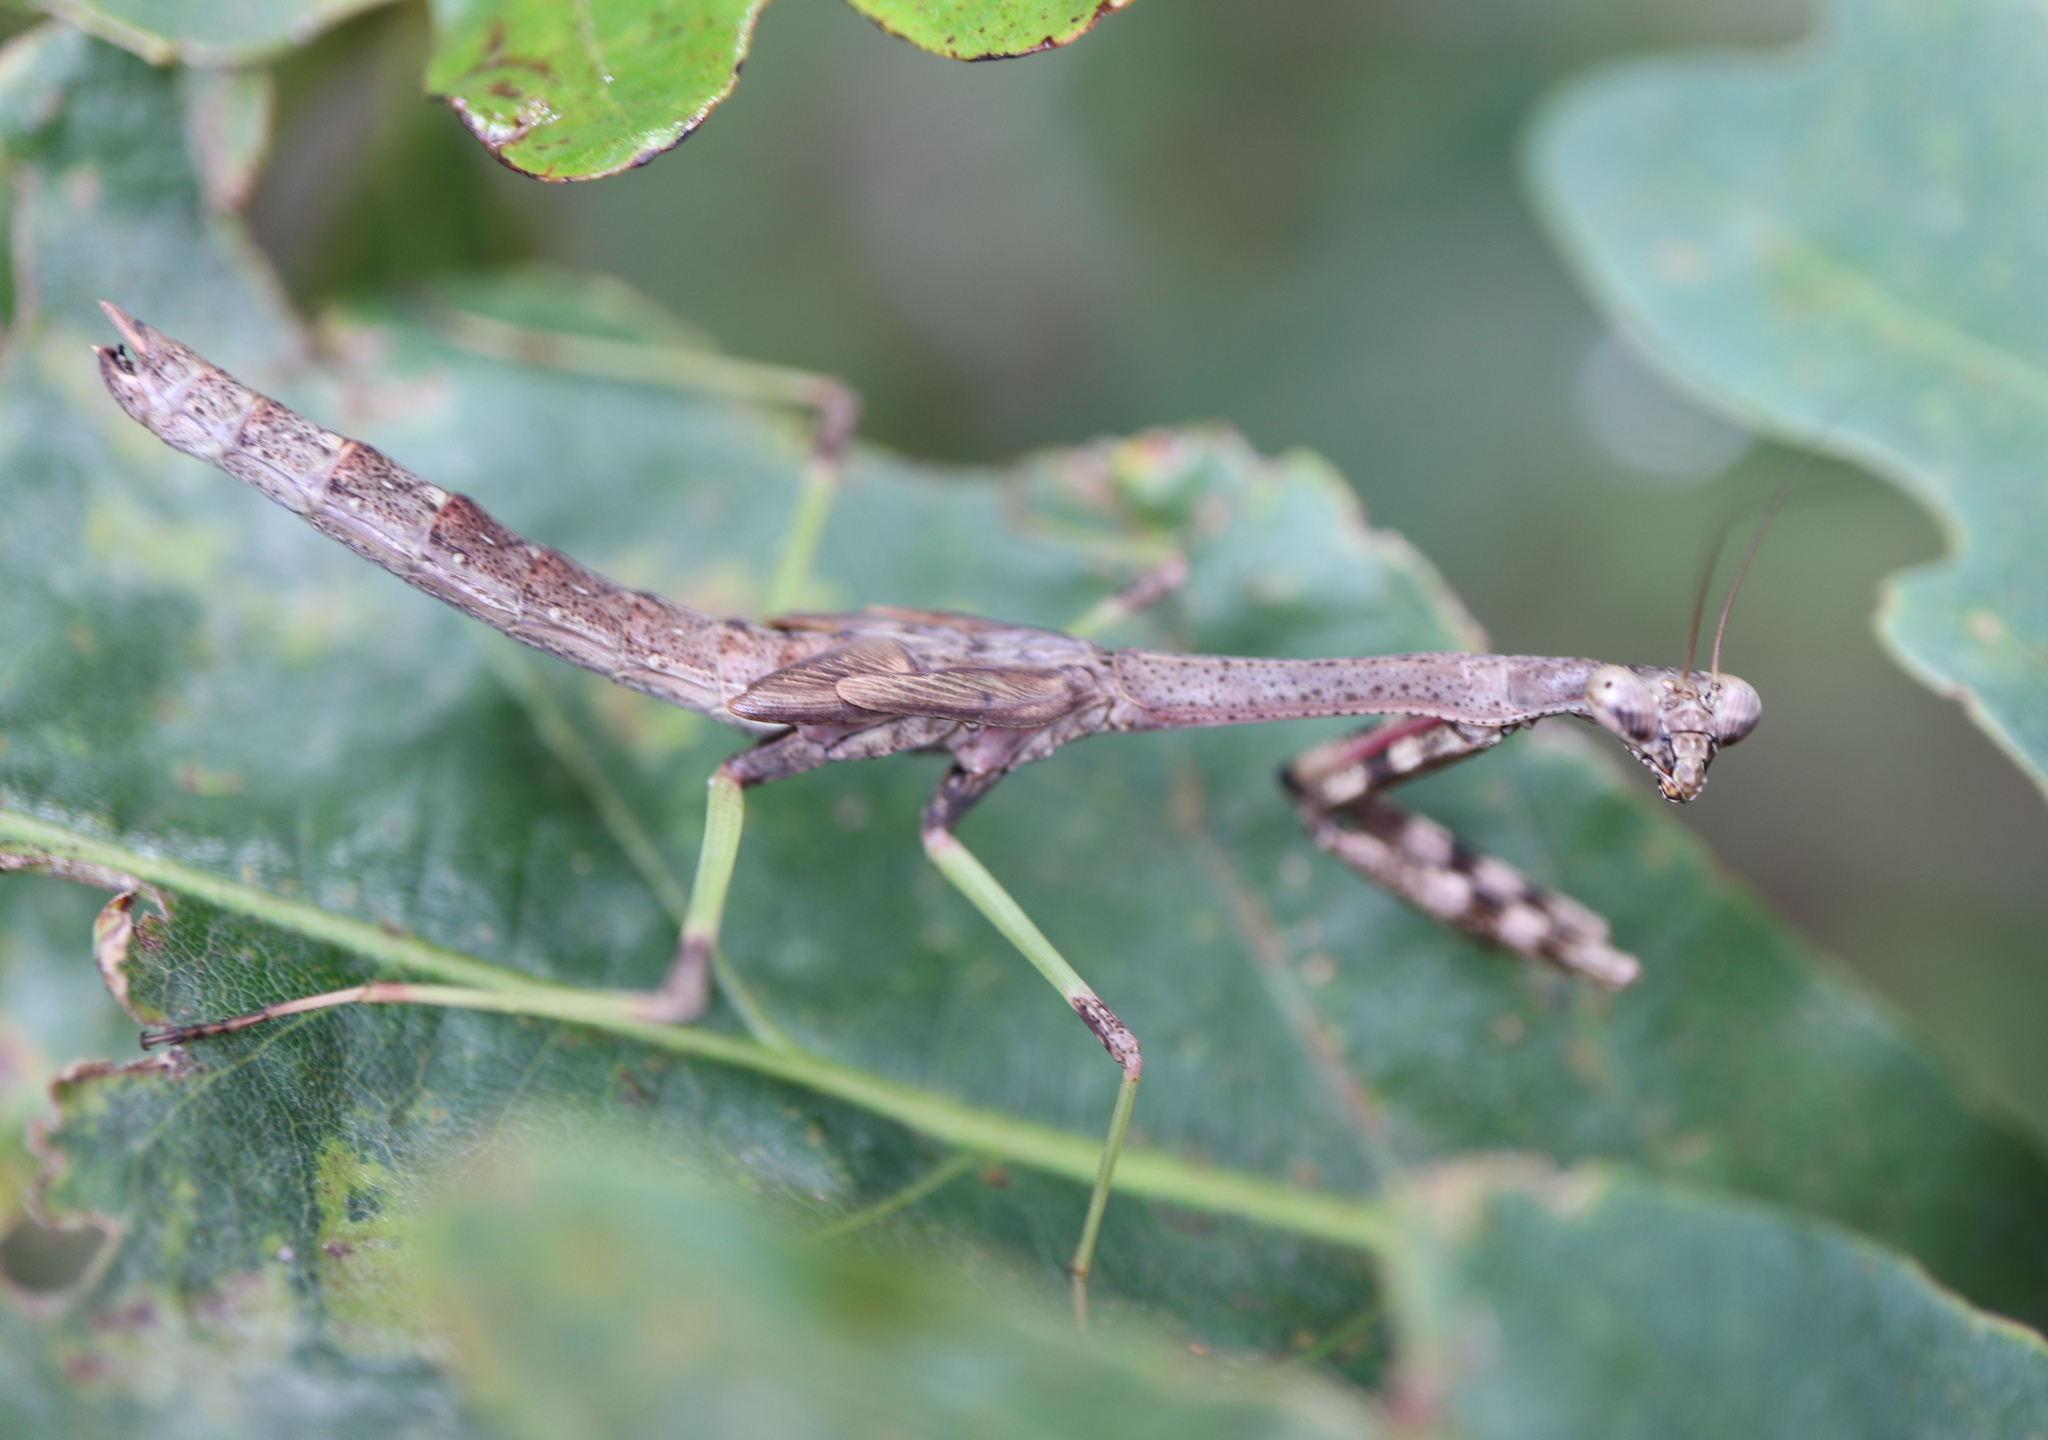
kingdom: Animalia
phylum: Arthropoda
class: Insecta
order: Mantodea
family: Mantidae
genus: Stagmomantis
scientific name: Stagmomantis carolina
